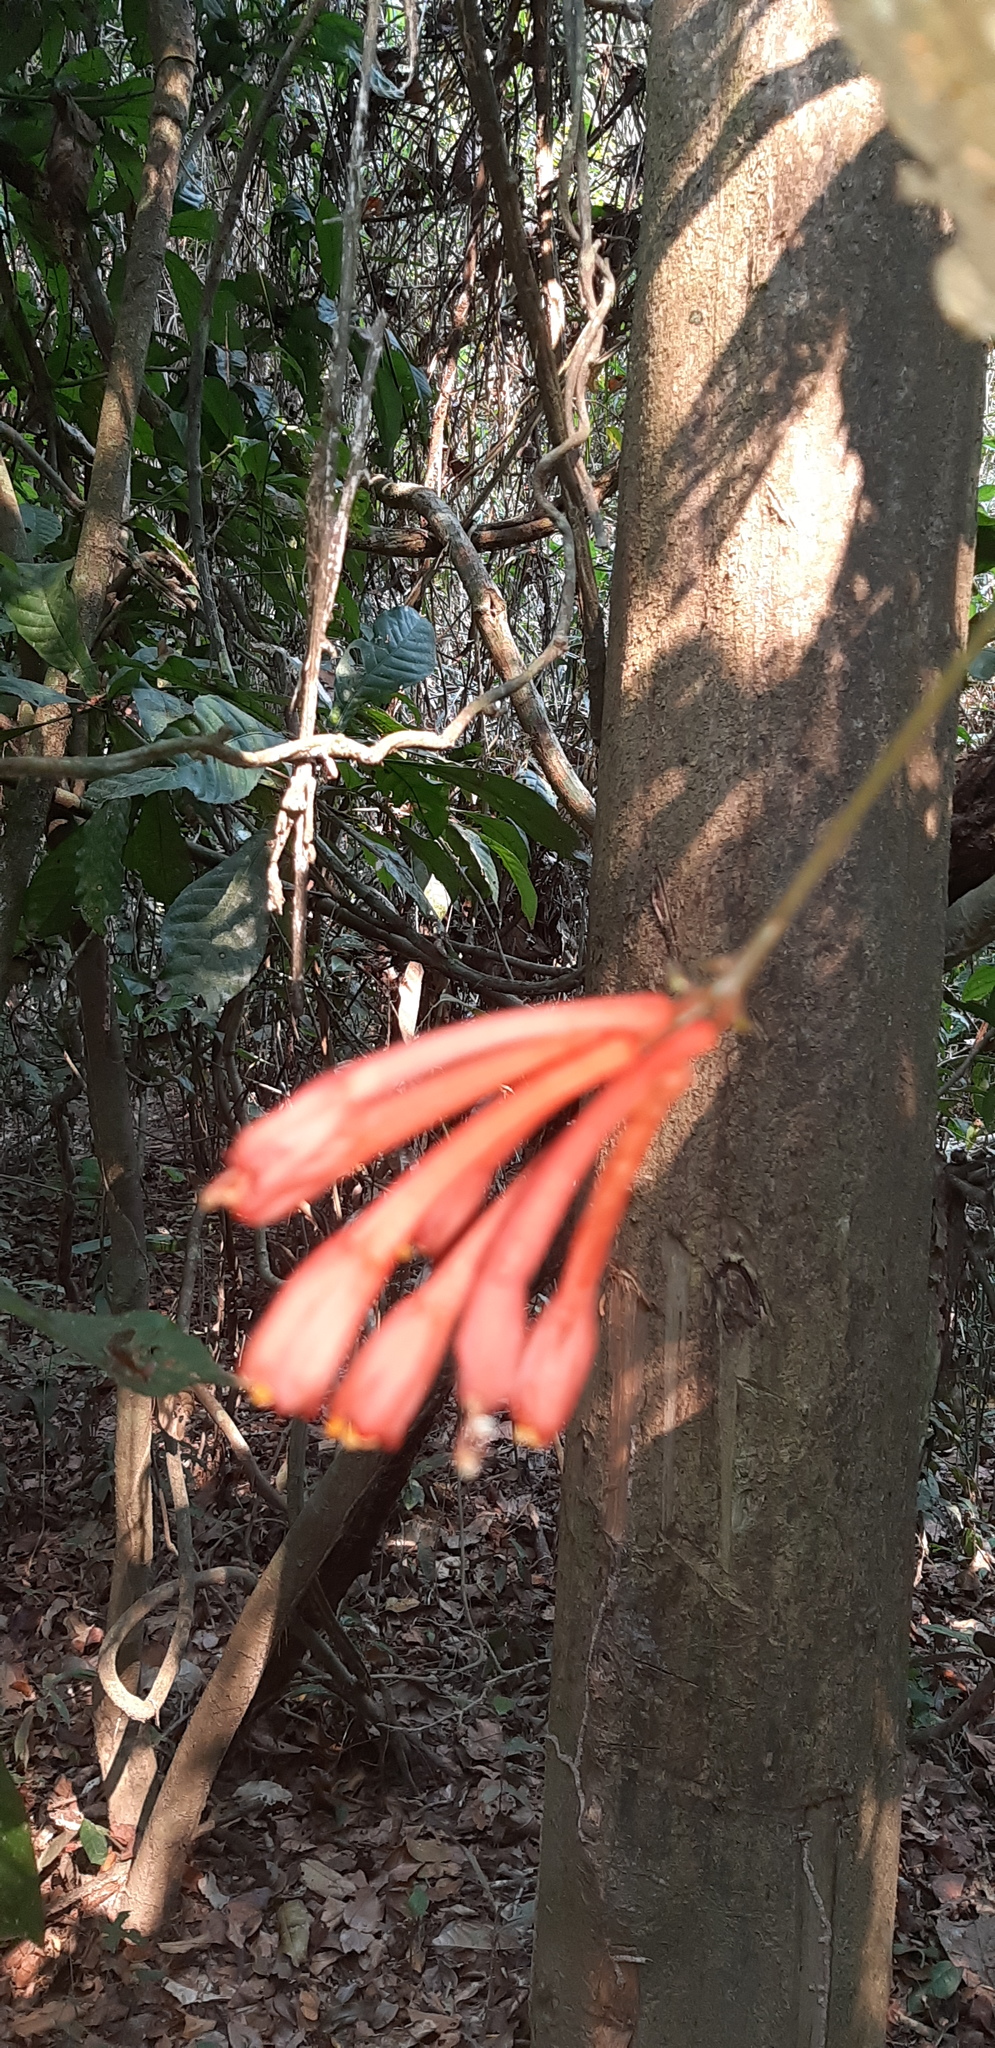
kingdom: Plantae
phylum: Tracheophyta
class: Magnoliopsida
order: Malpighiales
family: Passifloraceae
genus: Passiflora
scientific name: Passiflora rusbyi
